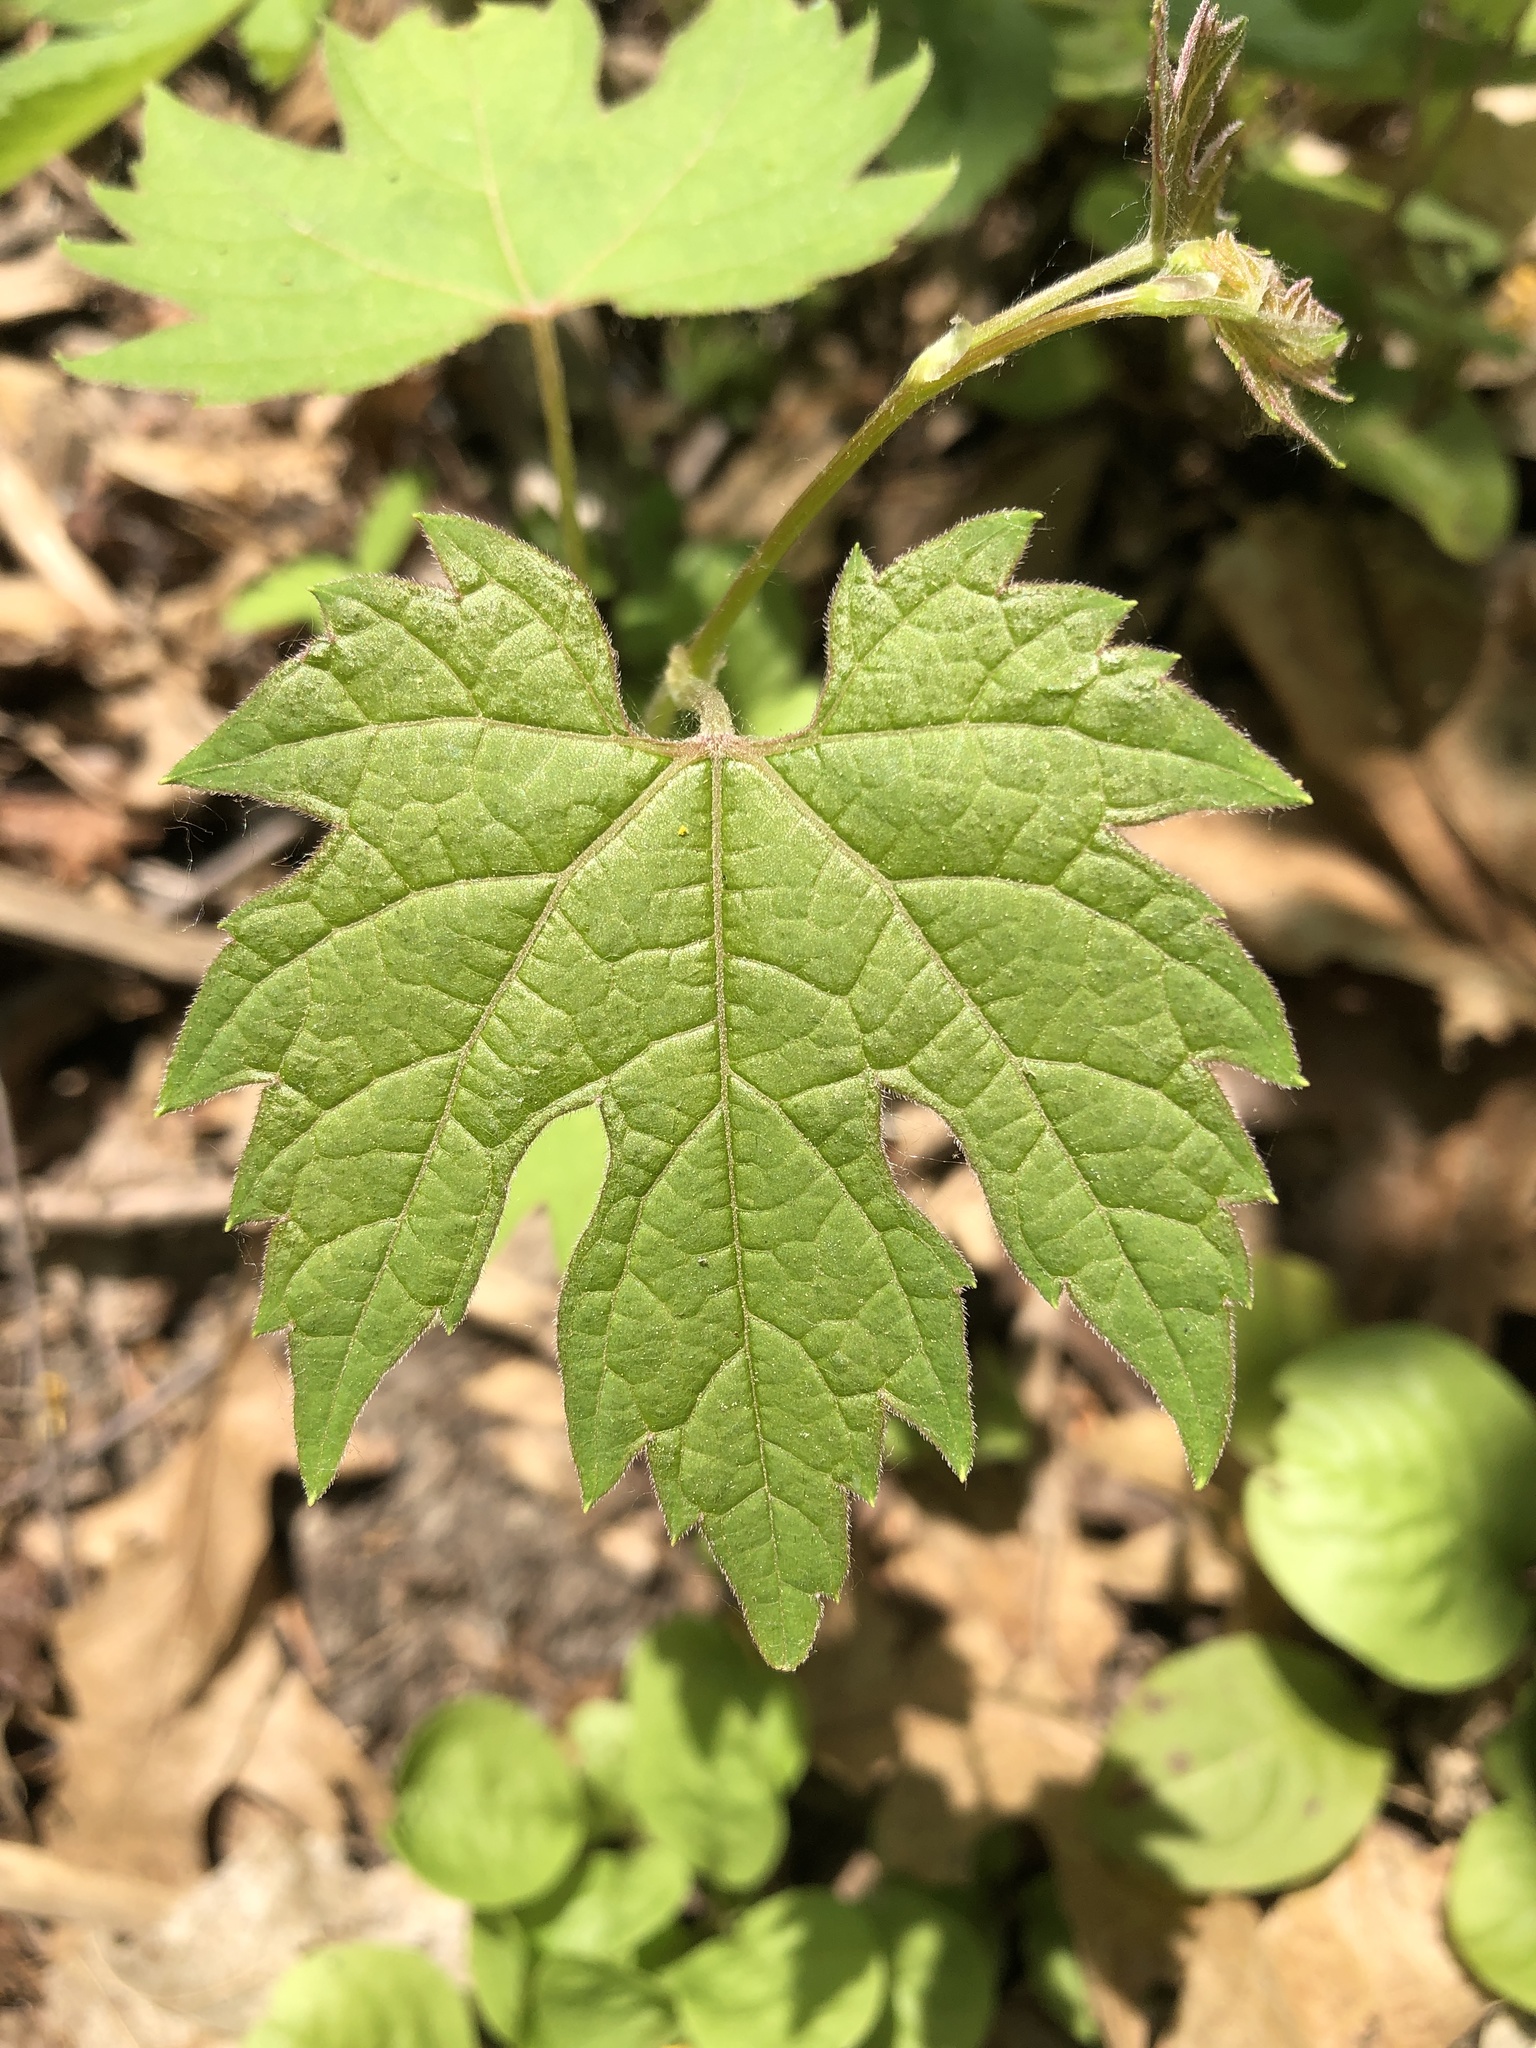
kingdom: Plantae
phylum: Tracheophyta
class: Magnoliopsida
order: Vitales
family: Vitaceae
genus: Vitis
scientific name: Vitis riparia
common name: Frost grape
